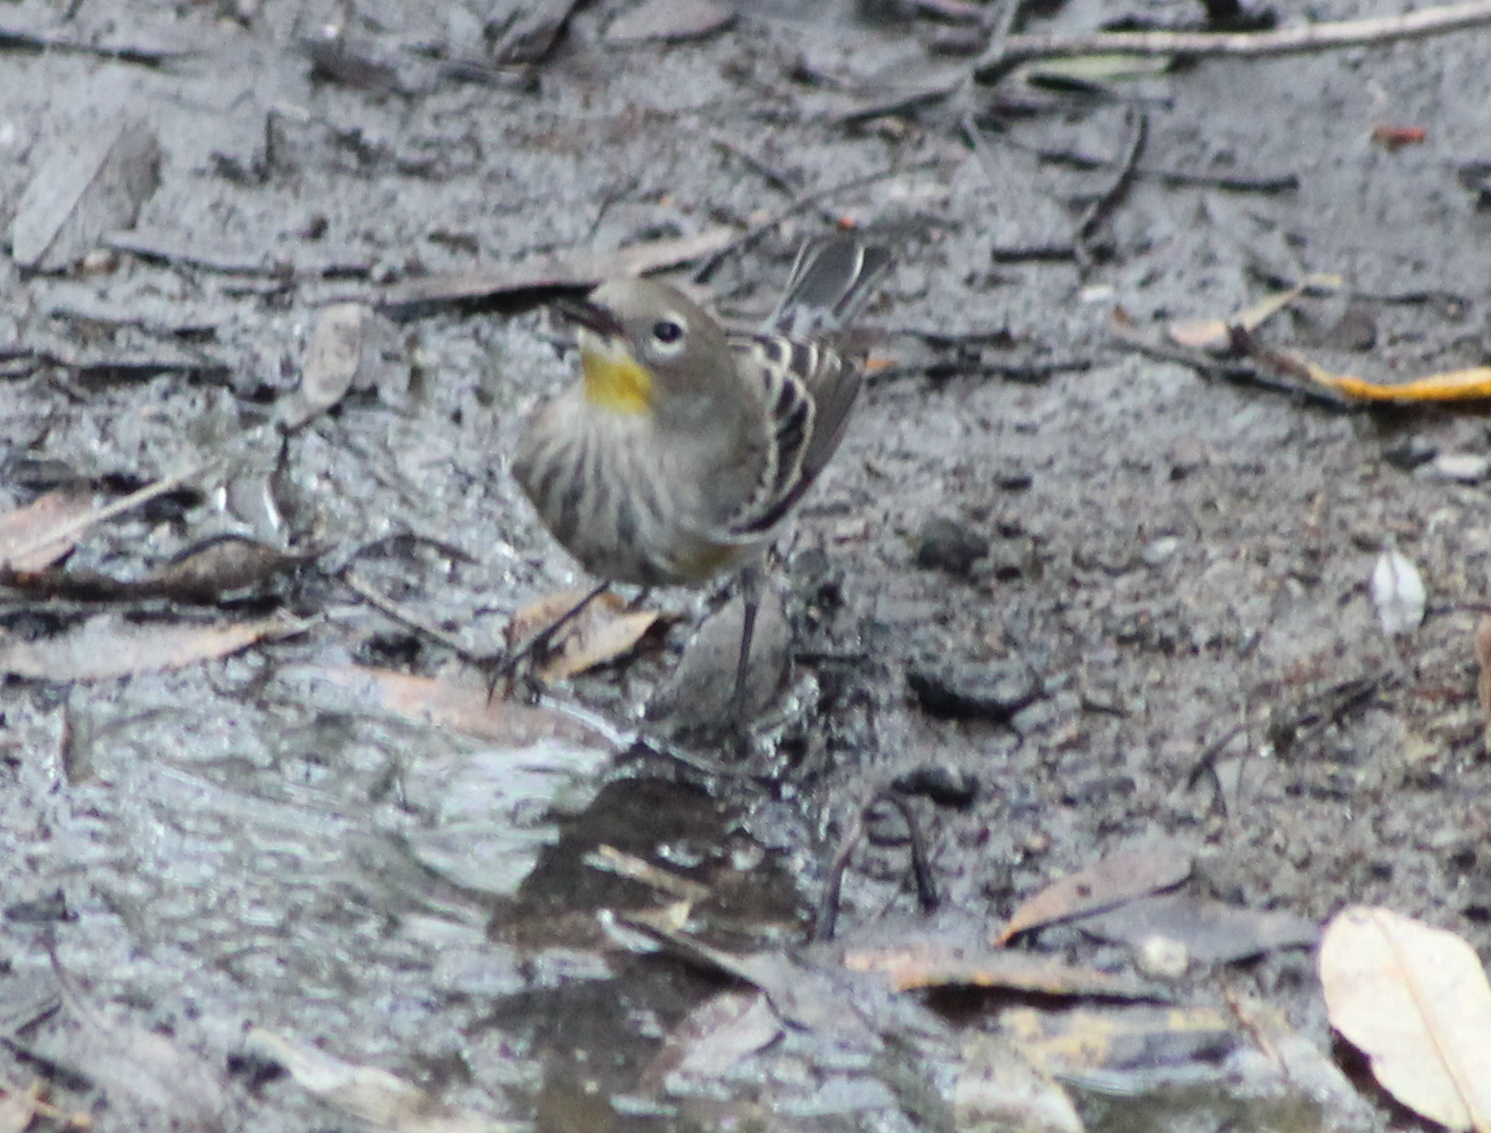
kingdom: Animalia
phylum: Chordata
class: Aves
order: Passeriformes
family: Parulidae
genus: Setophaga
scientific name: Setophaga auduboni
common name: Audubon's warbler
